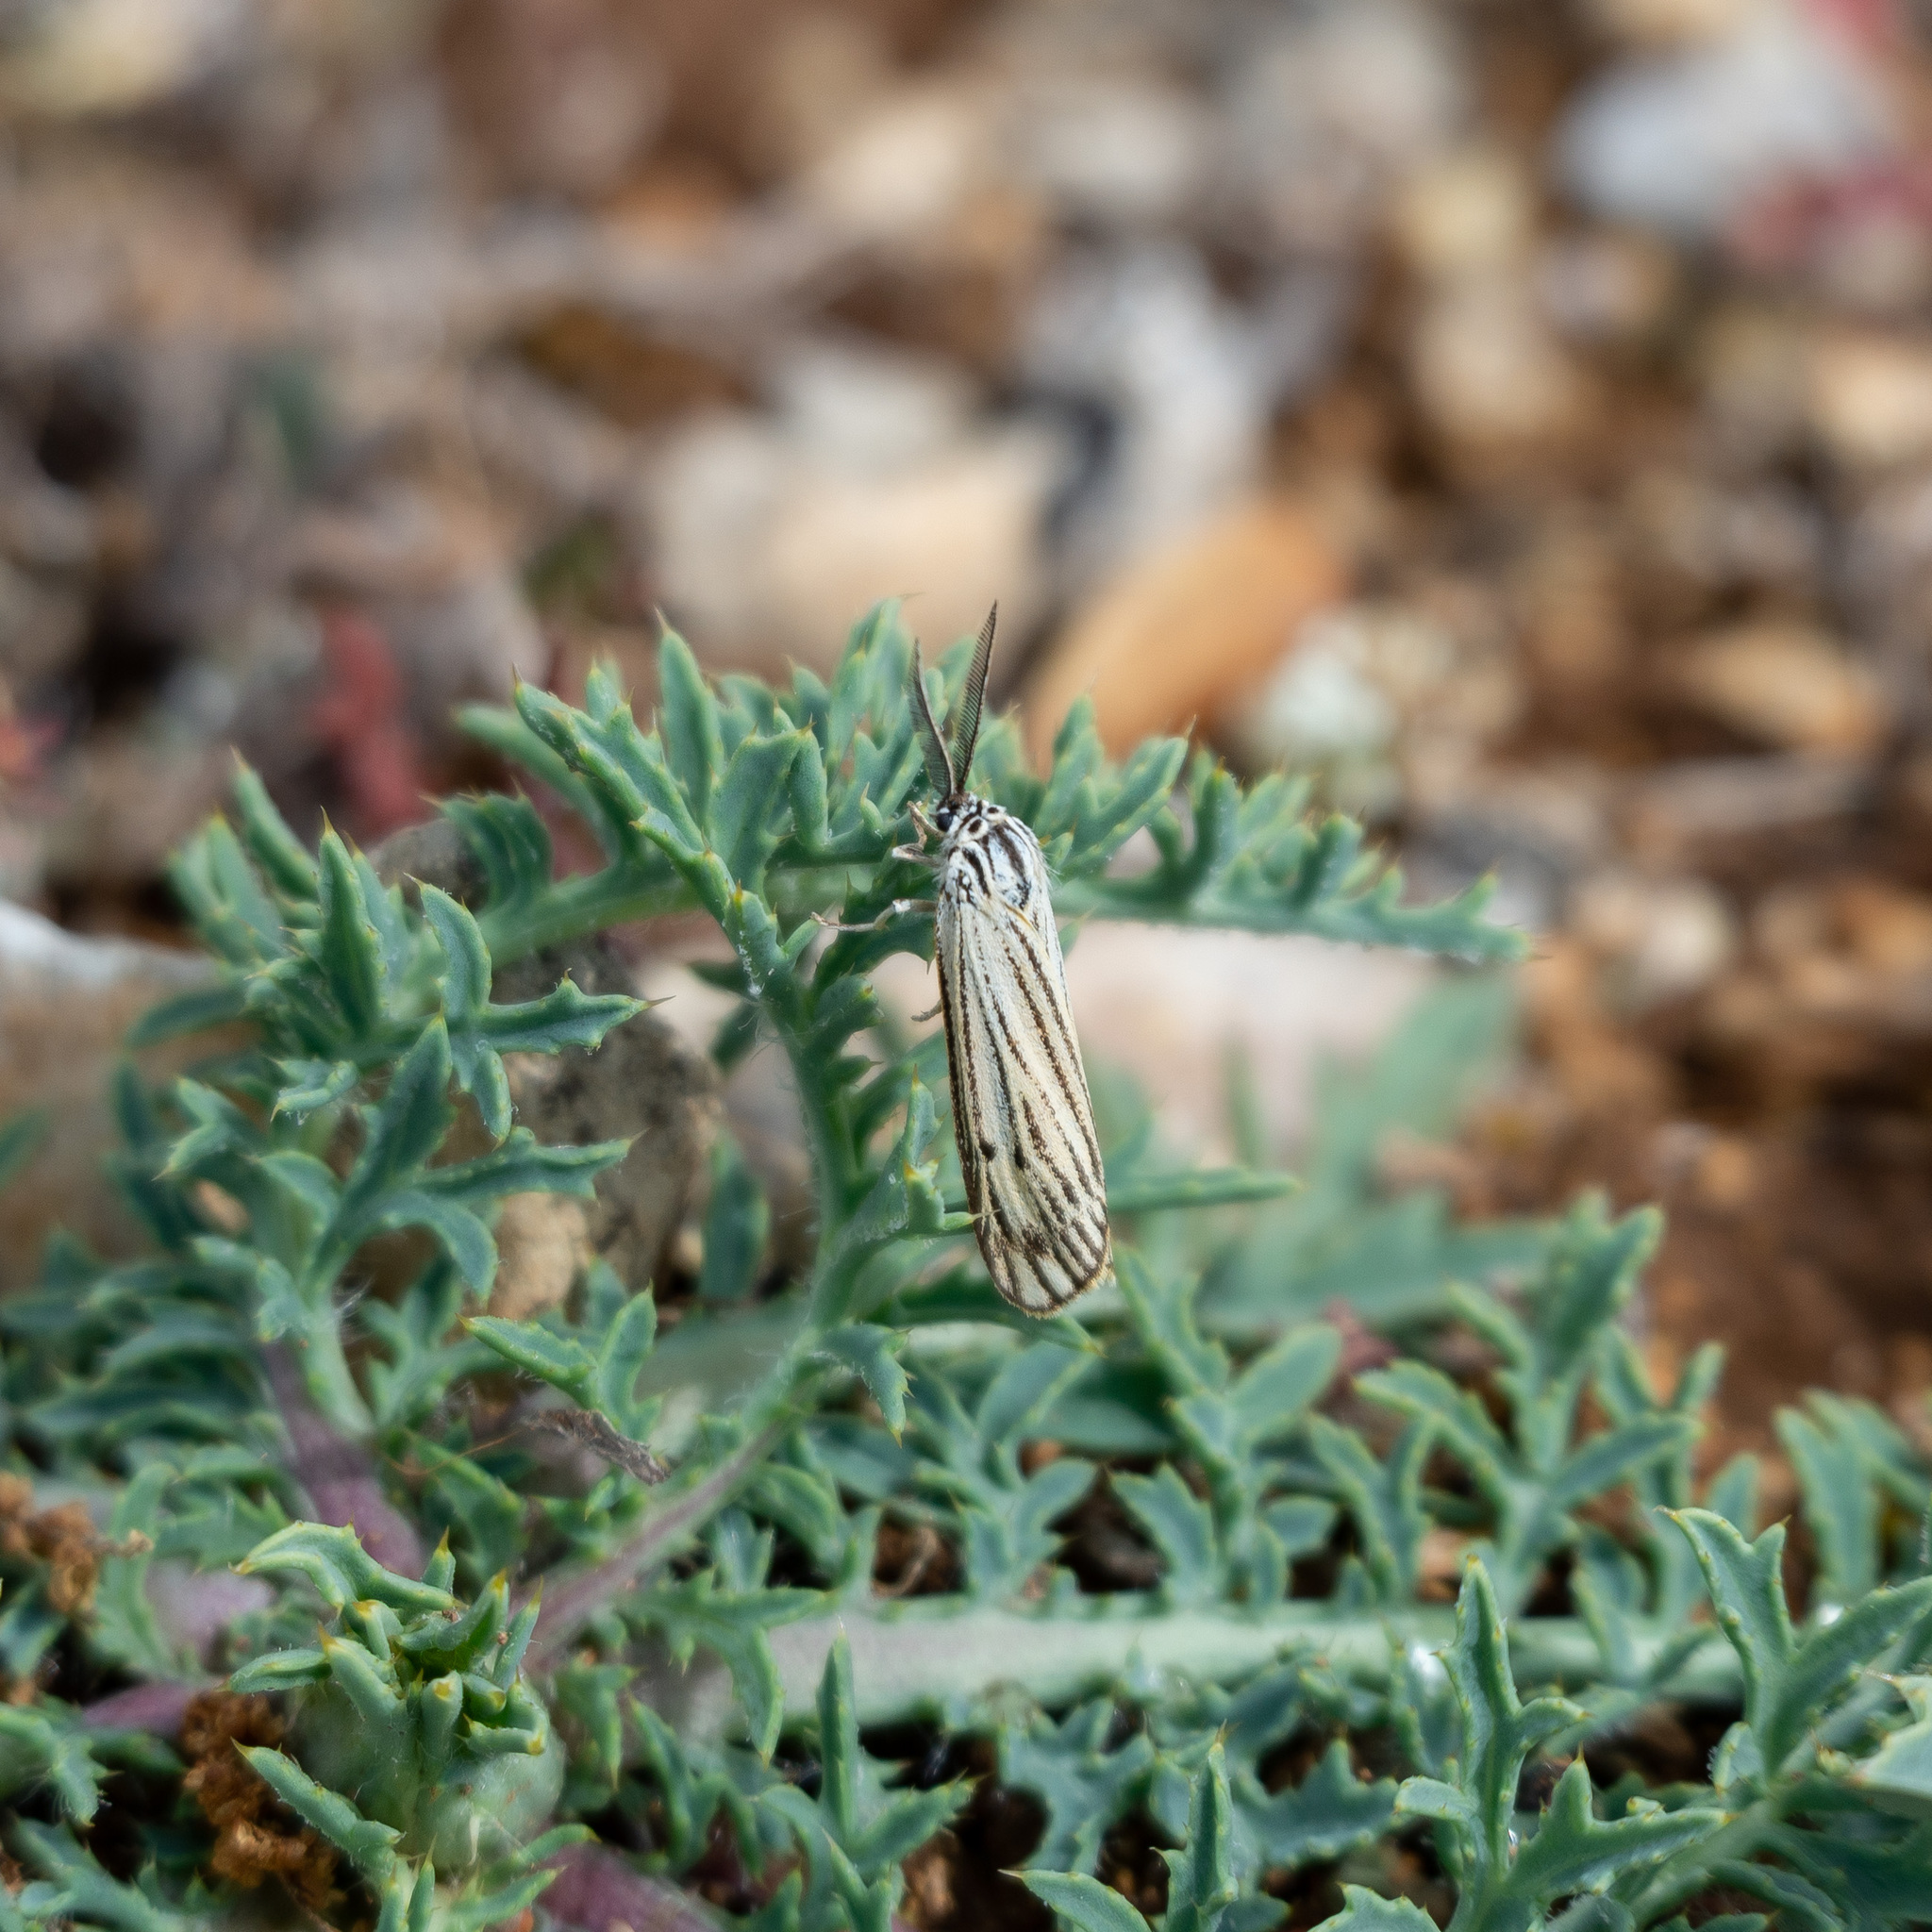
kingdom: Animalia
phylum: Arthropoda
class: Insecta
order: Lepidoptera
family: Erebidae
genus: Coscinia
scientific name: Coscinia Spiris striata
